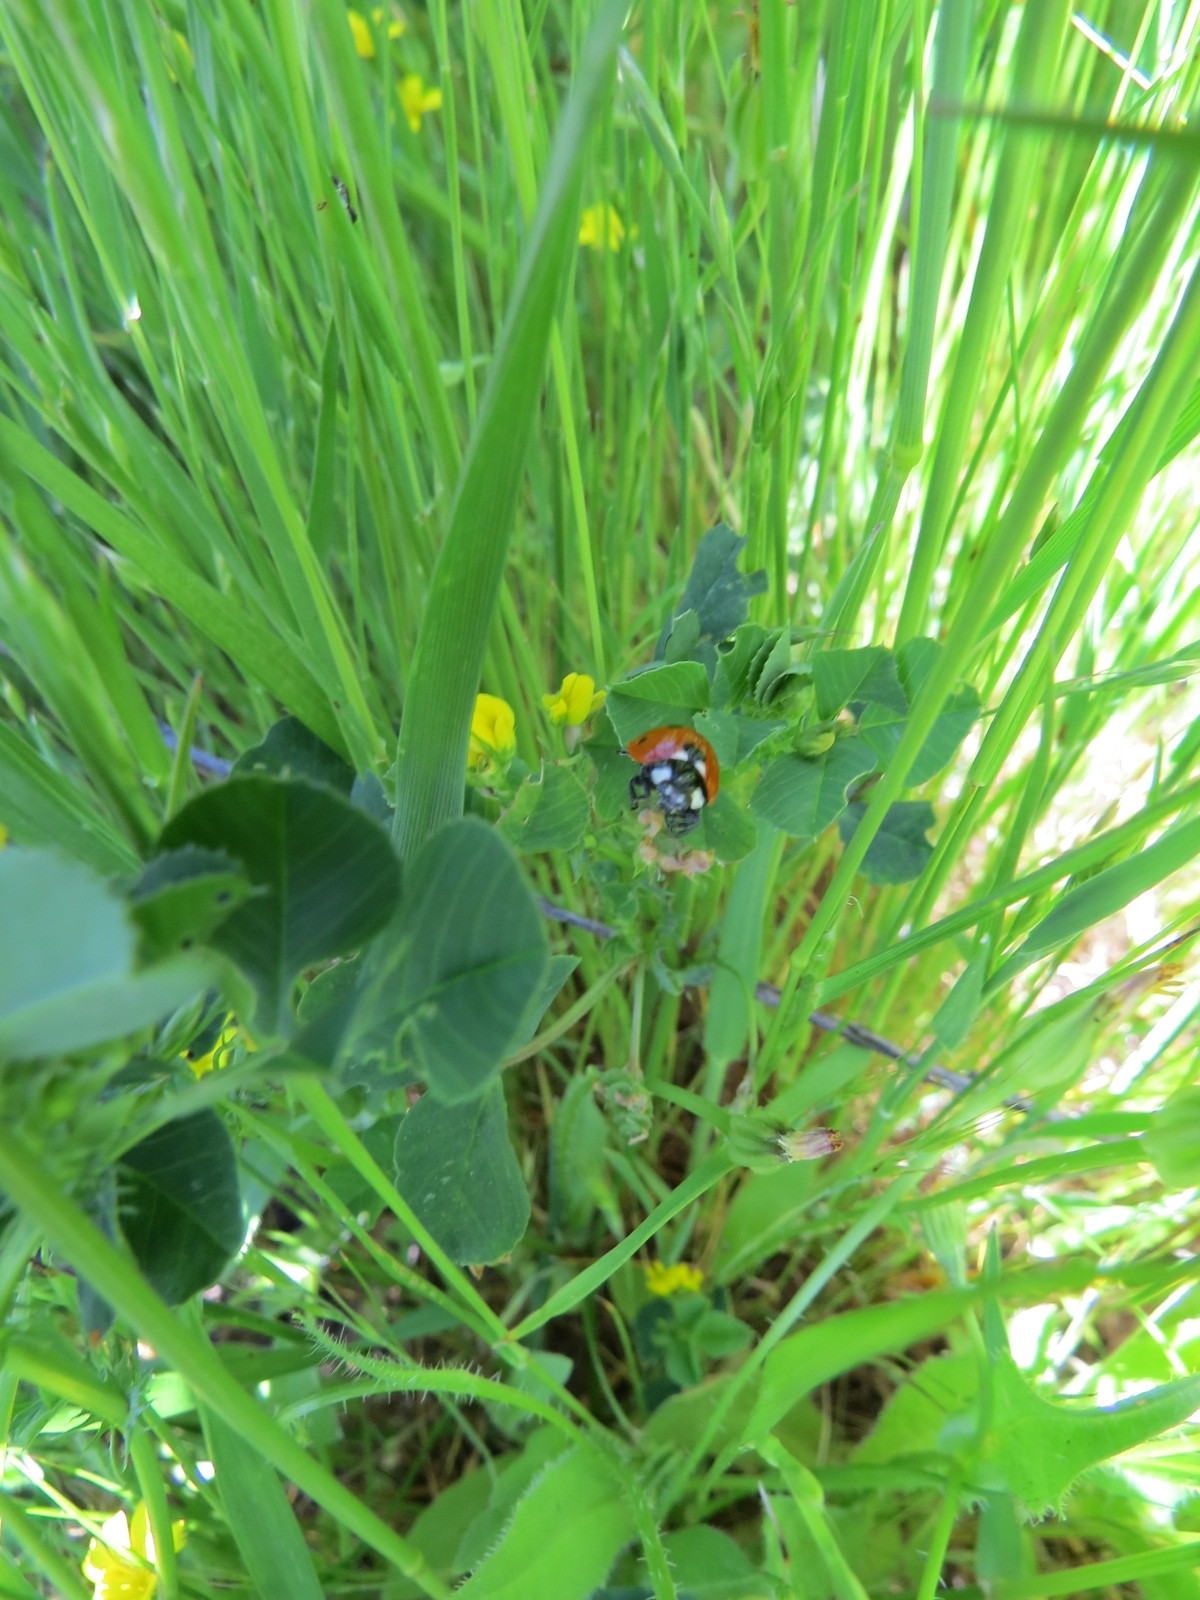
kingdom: Animalia
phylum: Arthropoda
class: Insecta
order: Coleoptera
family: Coccinellidae
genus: Coccinella
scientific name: Coccinella septempunctata
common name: Sevenspotted lady beetle
